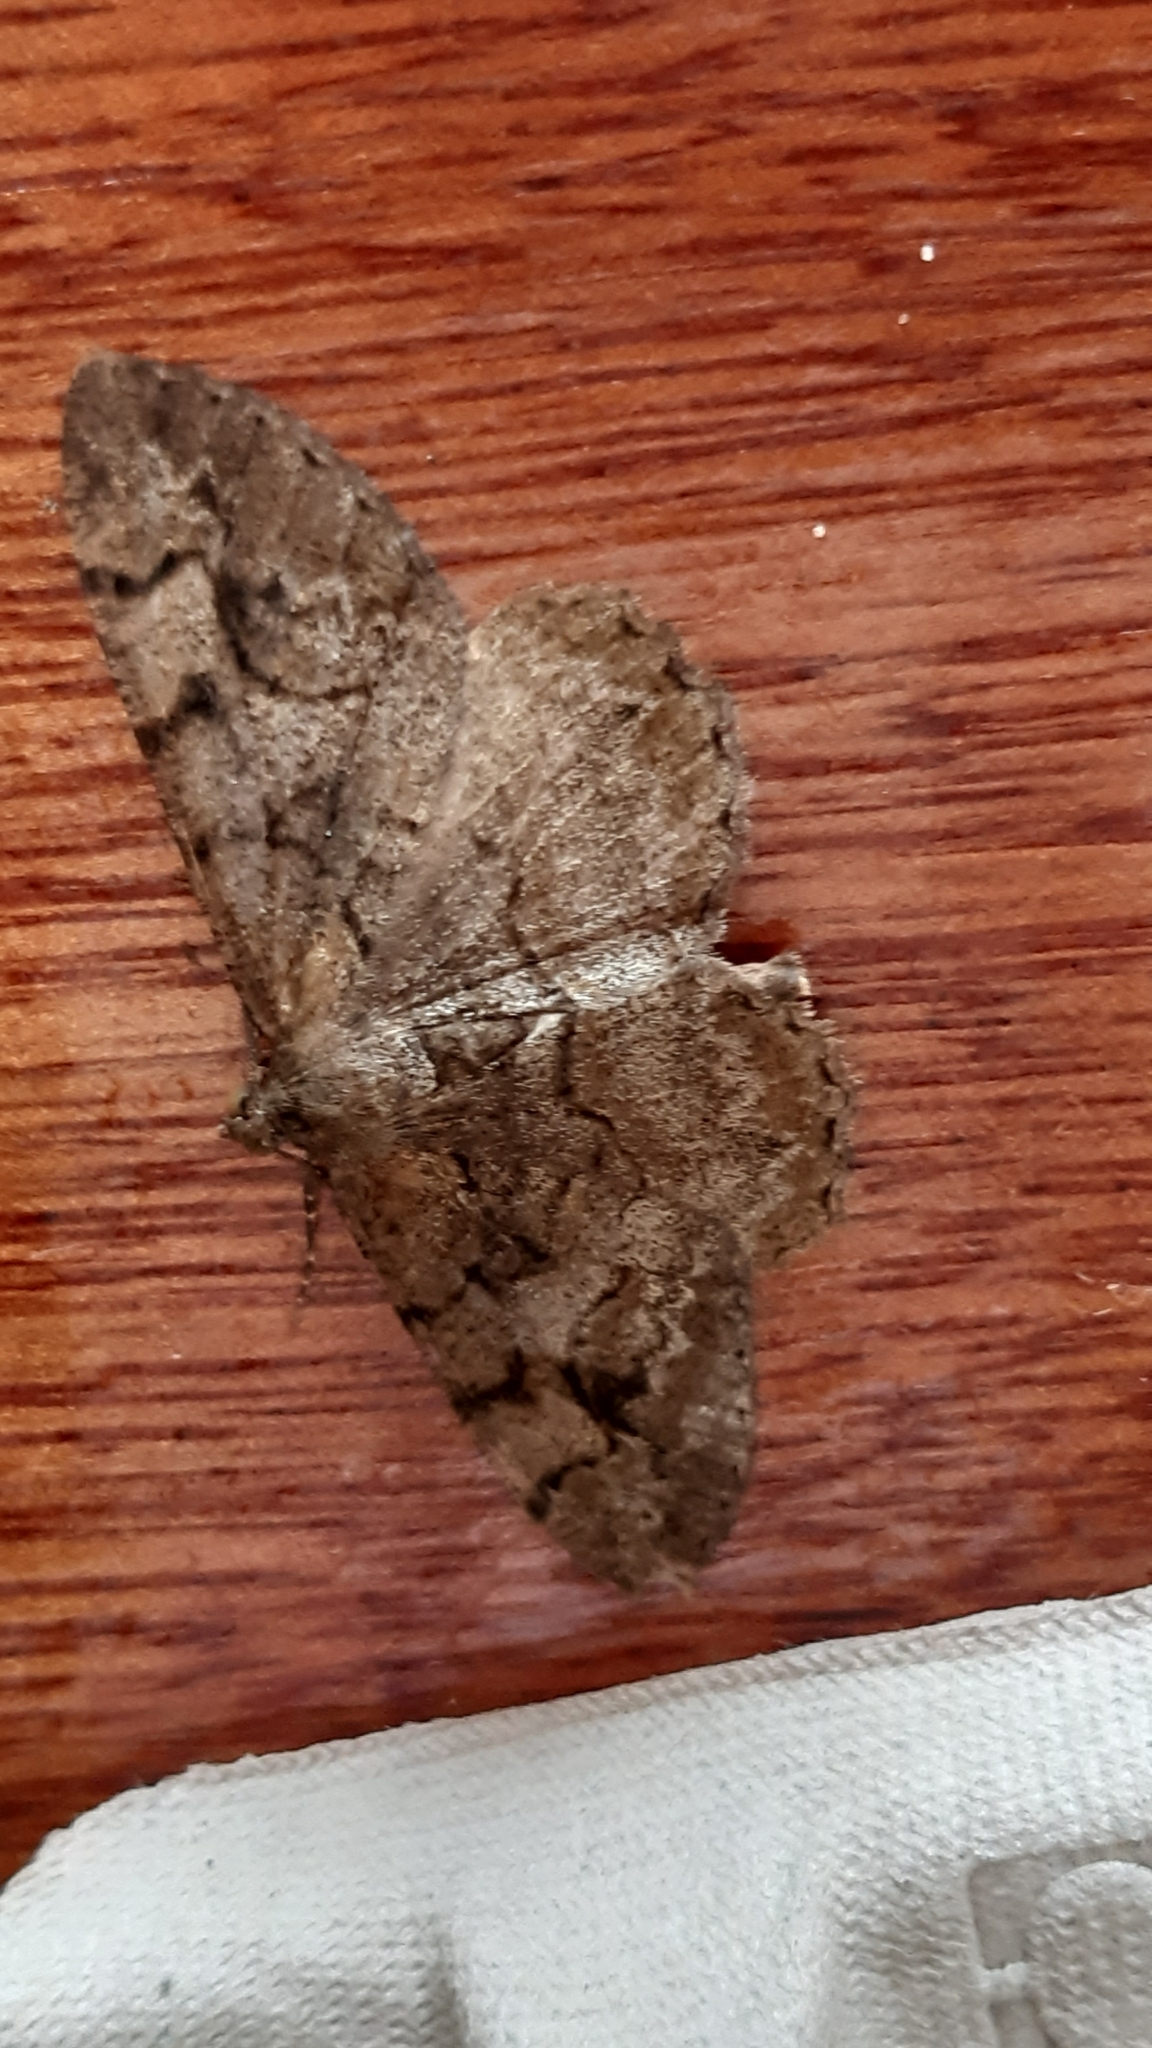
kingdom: Animalia
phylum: Arthropoda
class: Insecta
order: Lepidoptera
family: Geometridae
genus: Alcis
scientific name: Alcis repandata
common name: Mottled beauty
